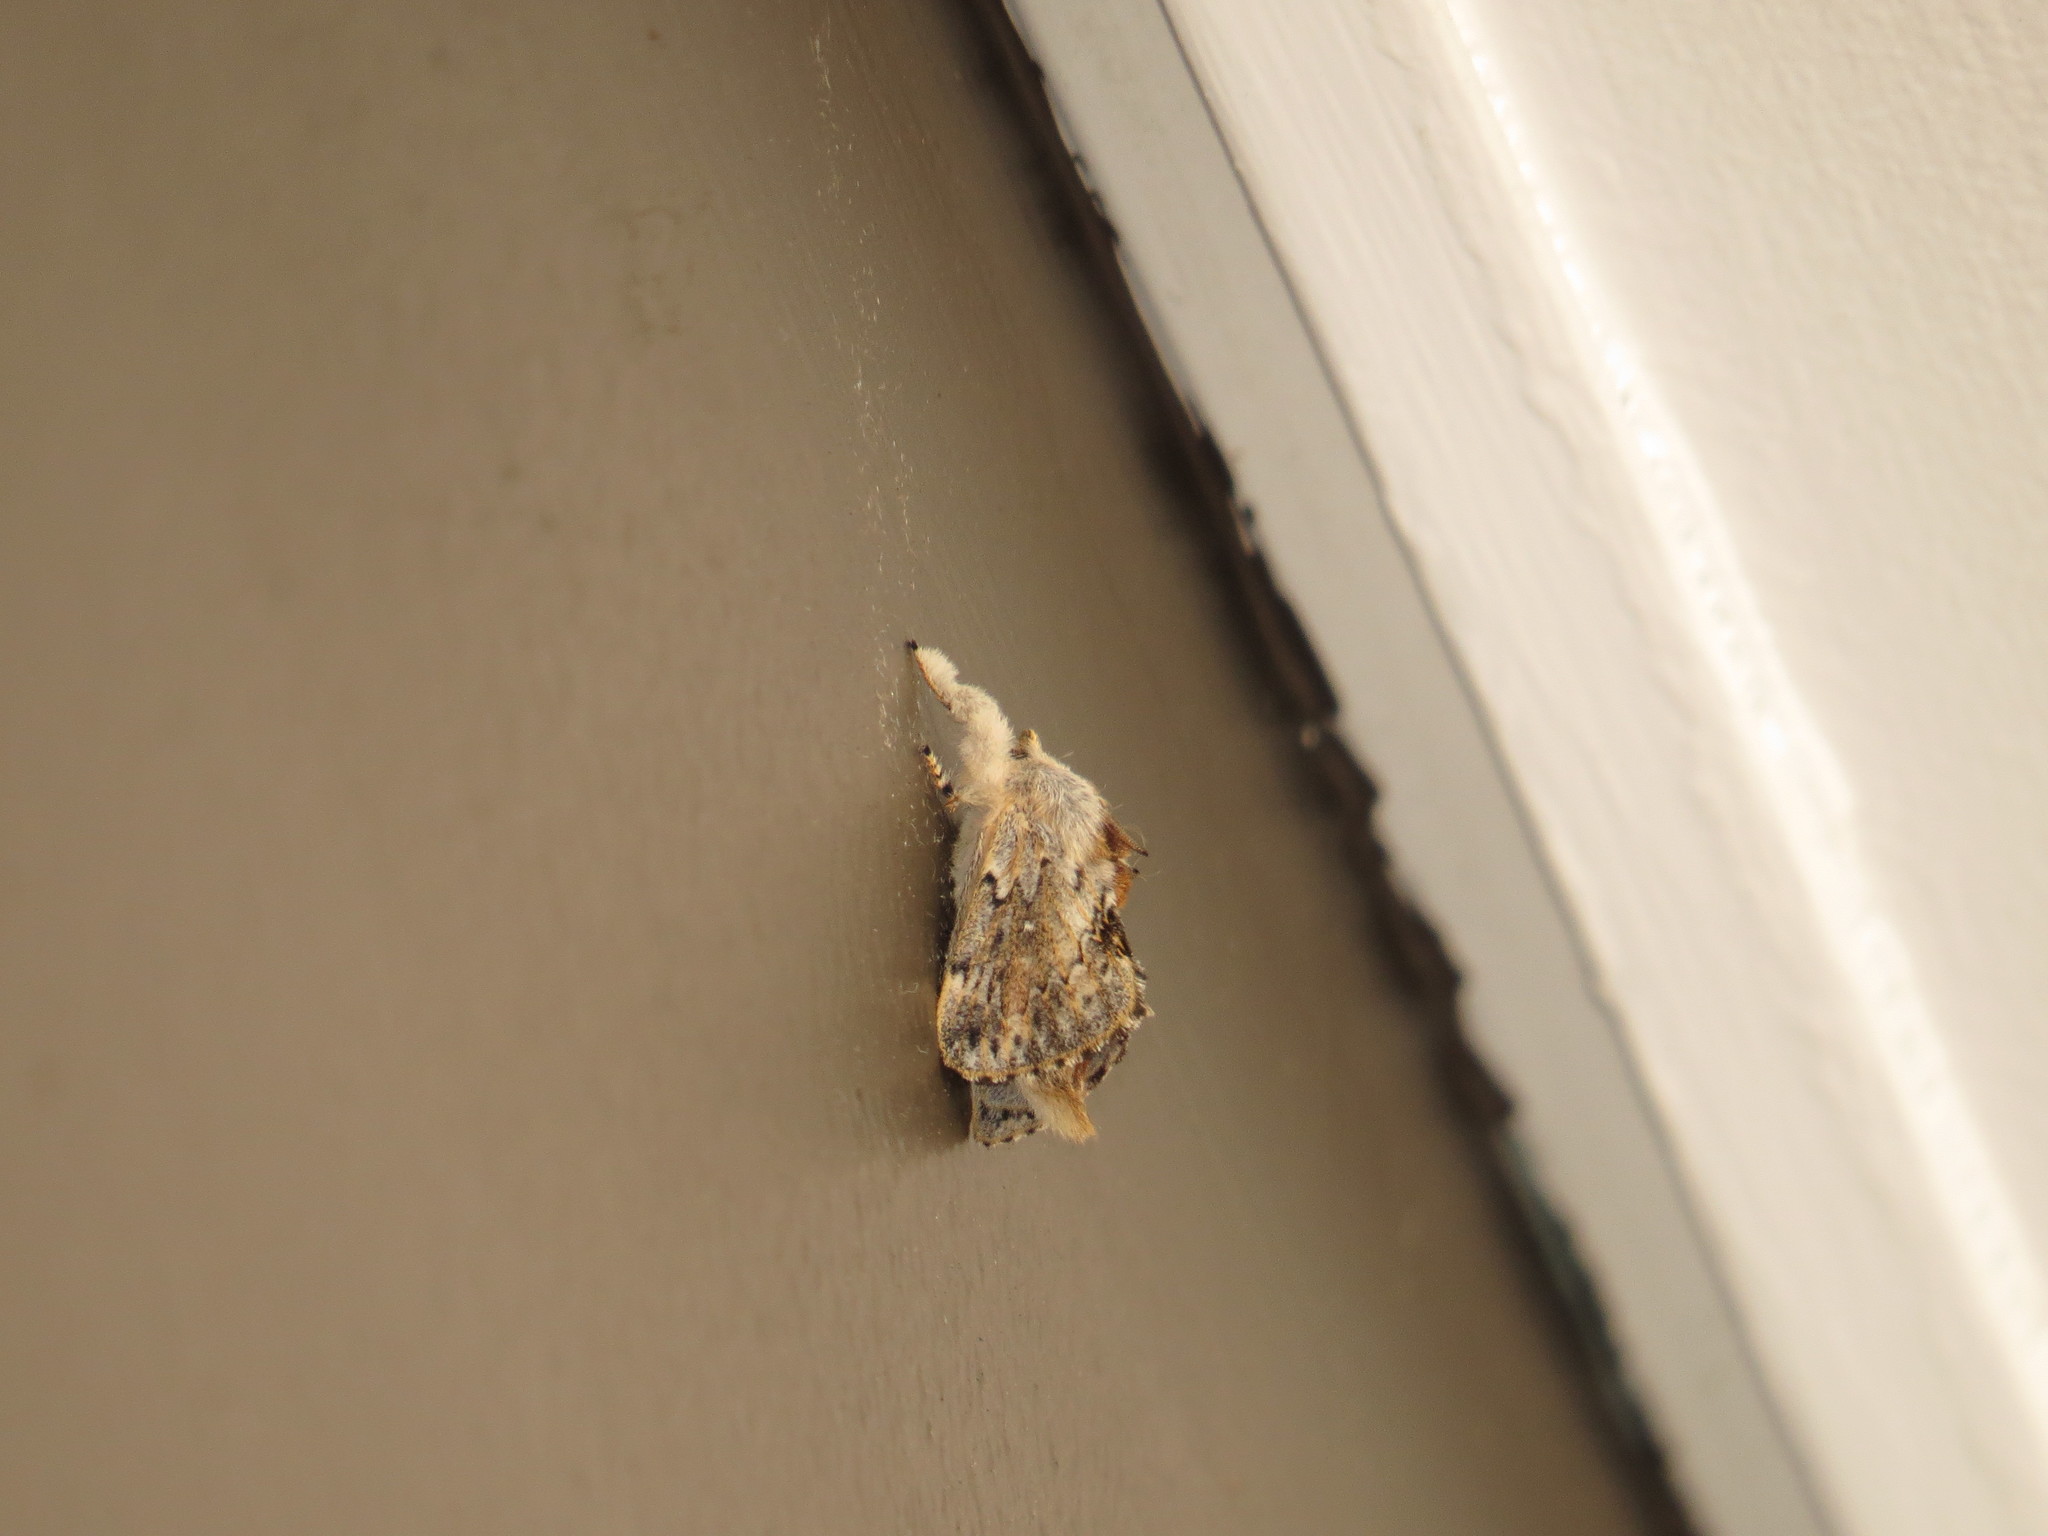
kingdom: Animalia
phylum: Arthropoda
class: Insecta
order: Lepidoptera
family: Lasiocampidae
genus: Porela
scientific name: Porela delineata
